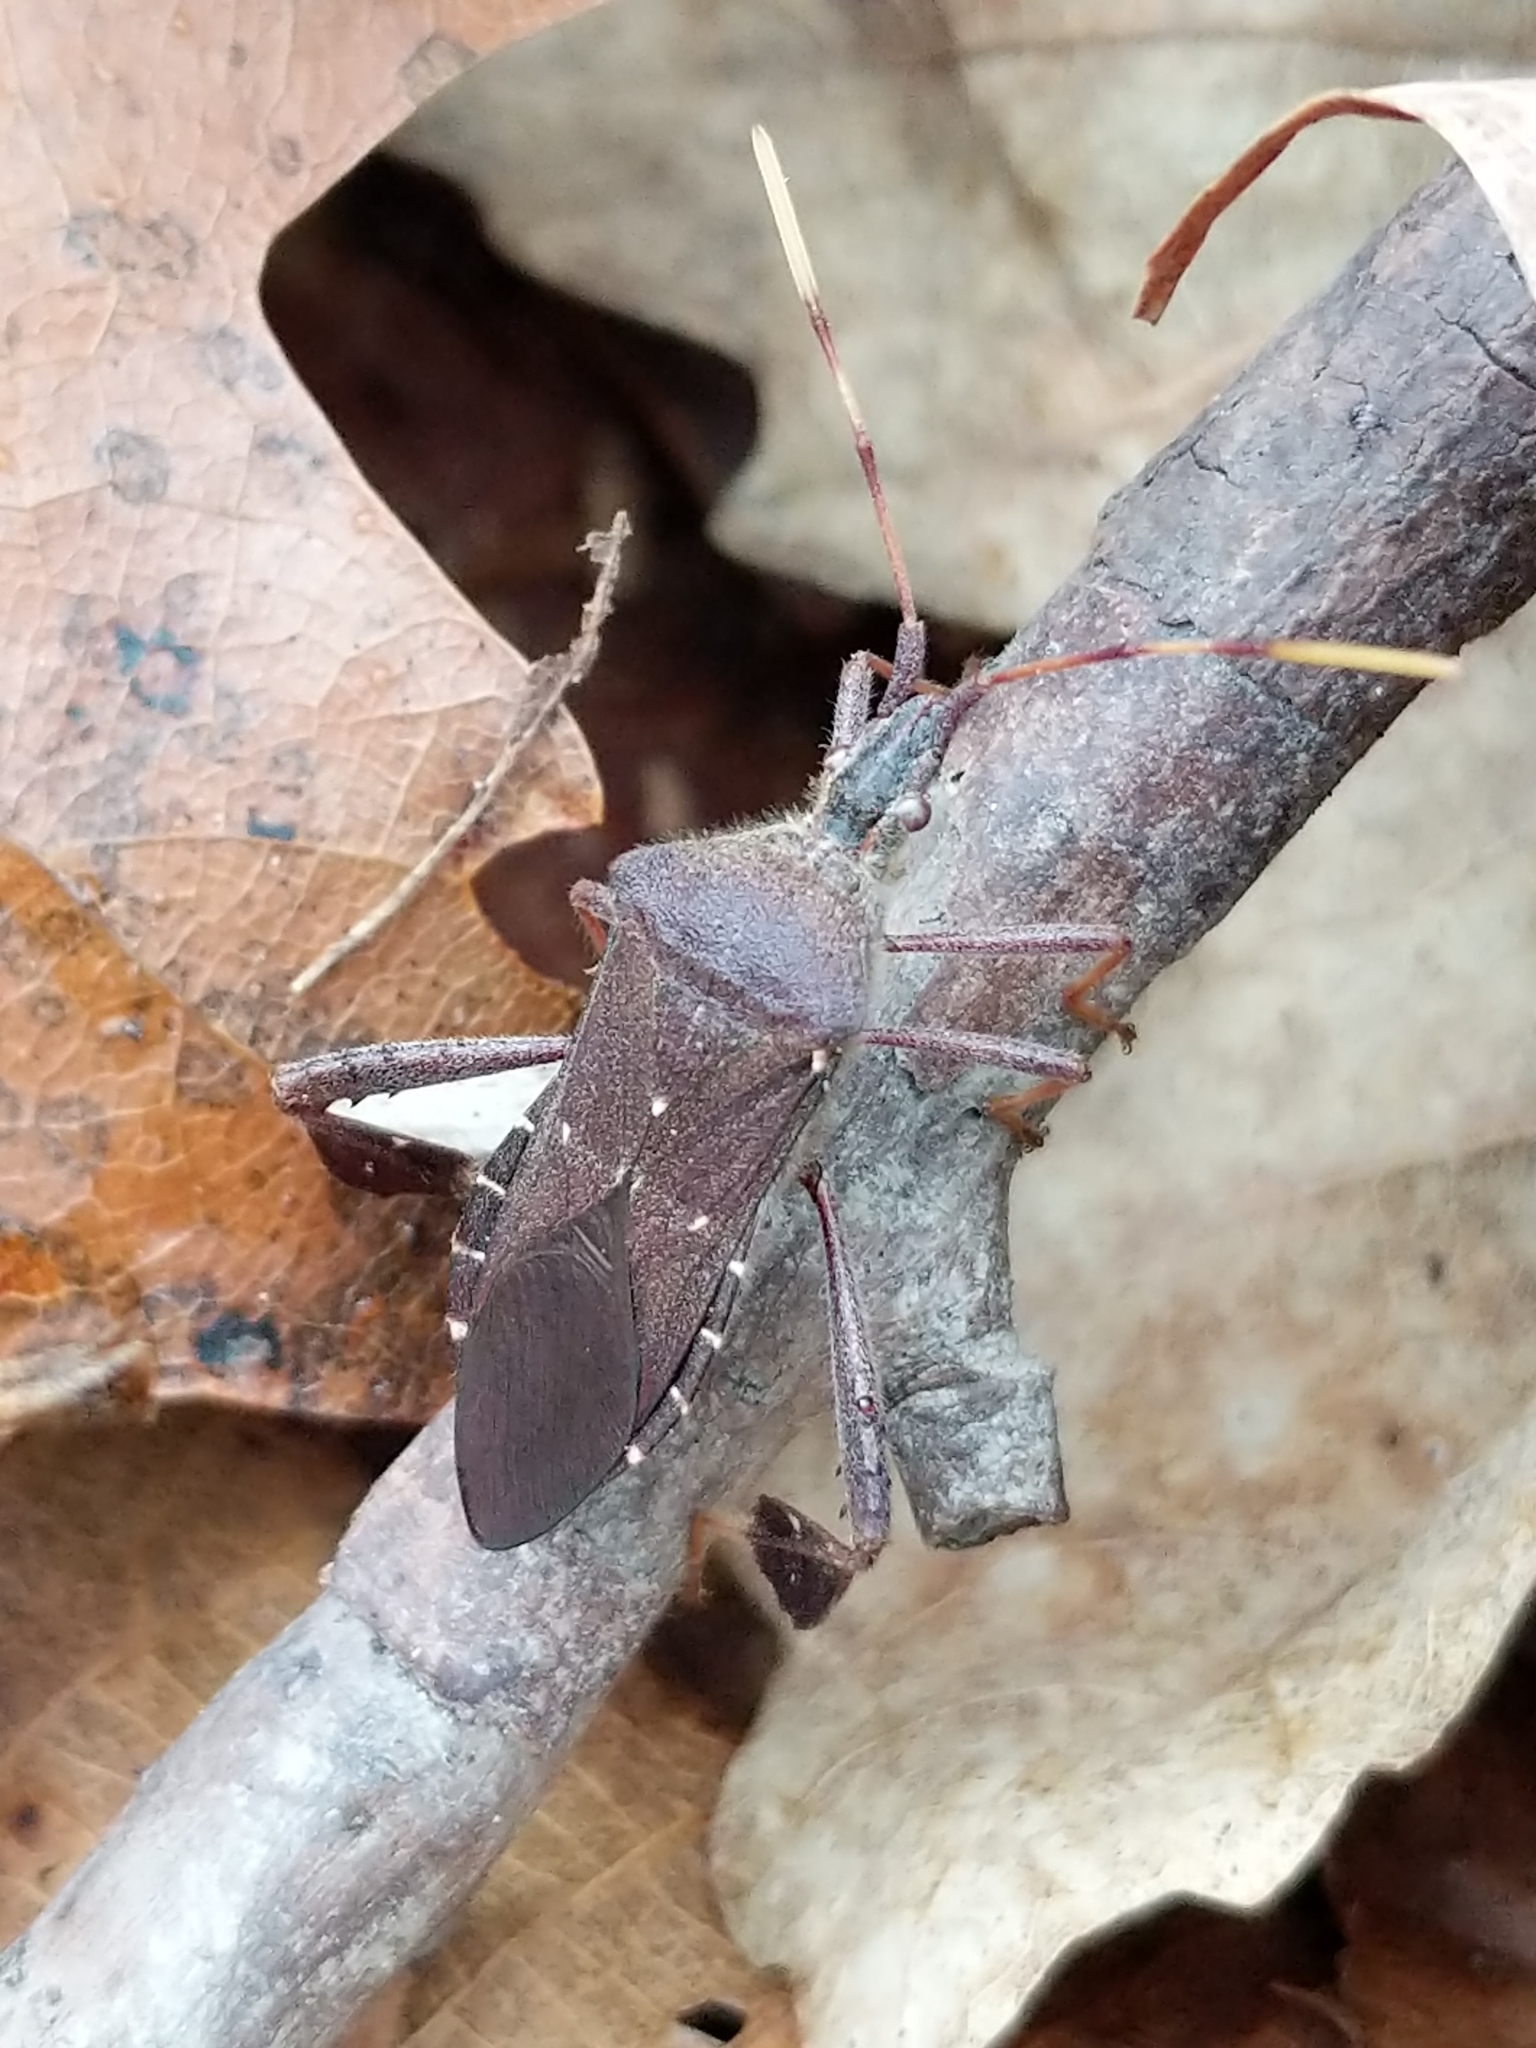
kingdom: Animalia
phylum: Arthropoda
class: Insecta
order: Hemiptera
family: Coreidae
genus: Leptoglossus
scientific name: Leptoglossus oppositus
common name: Northern leaf-footed bug
